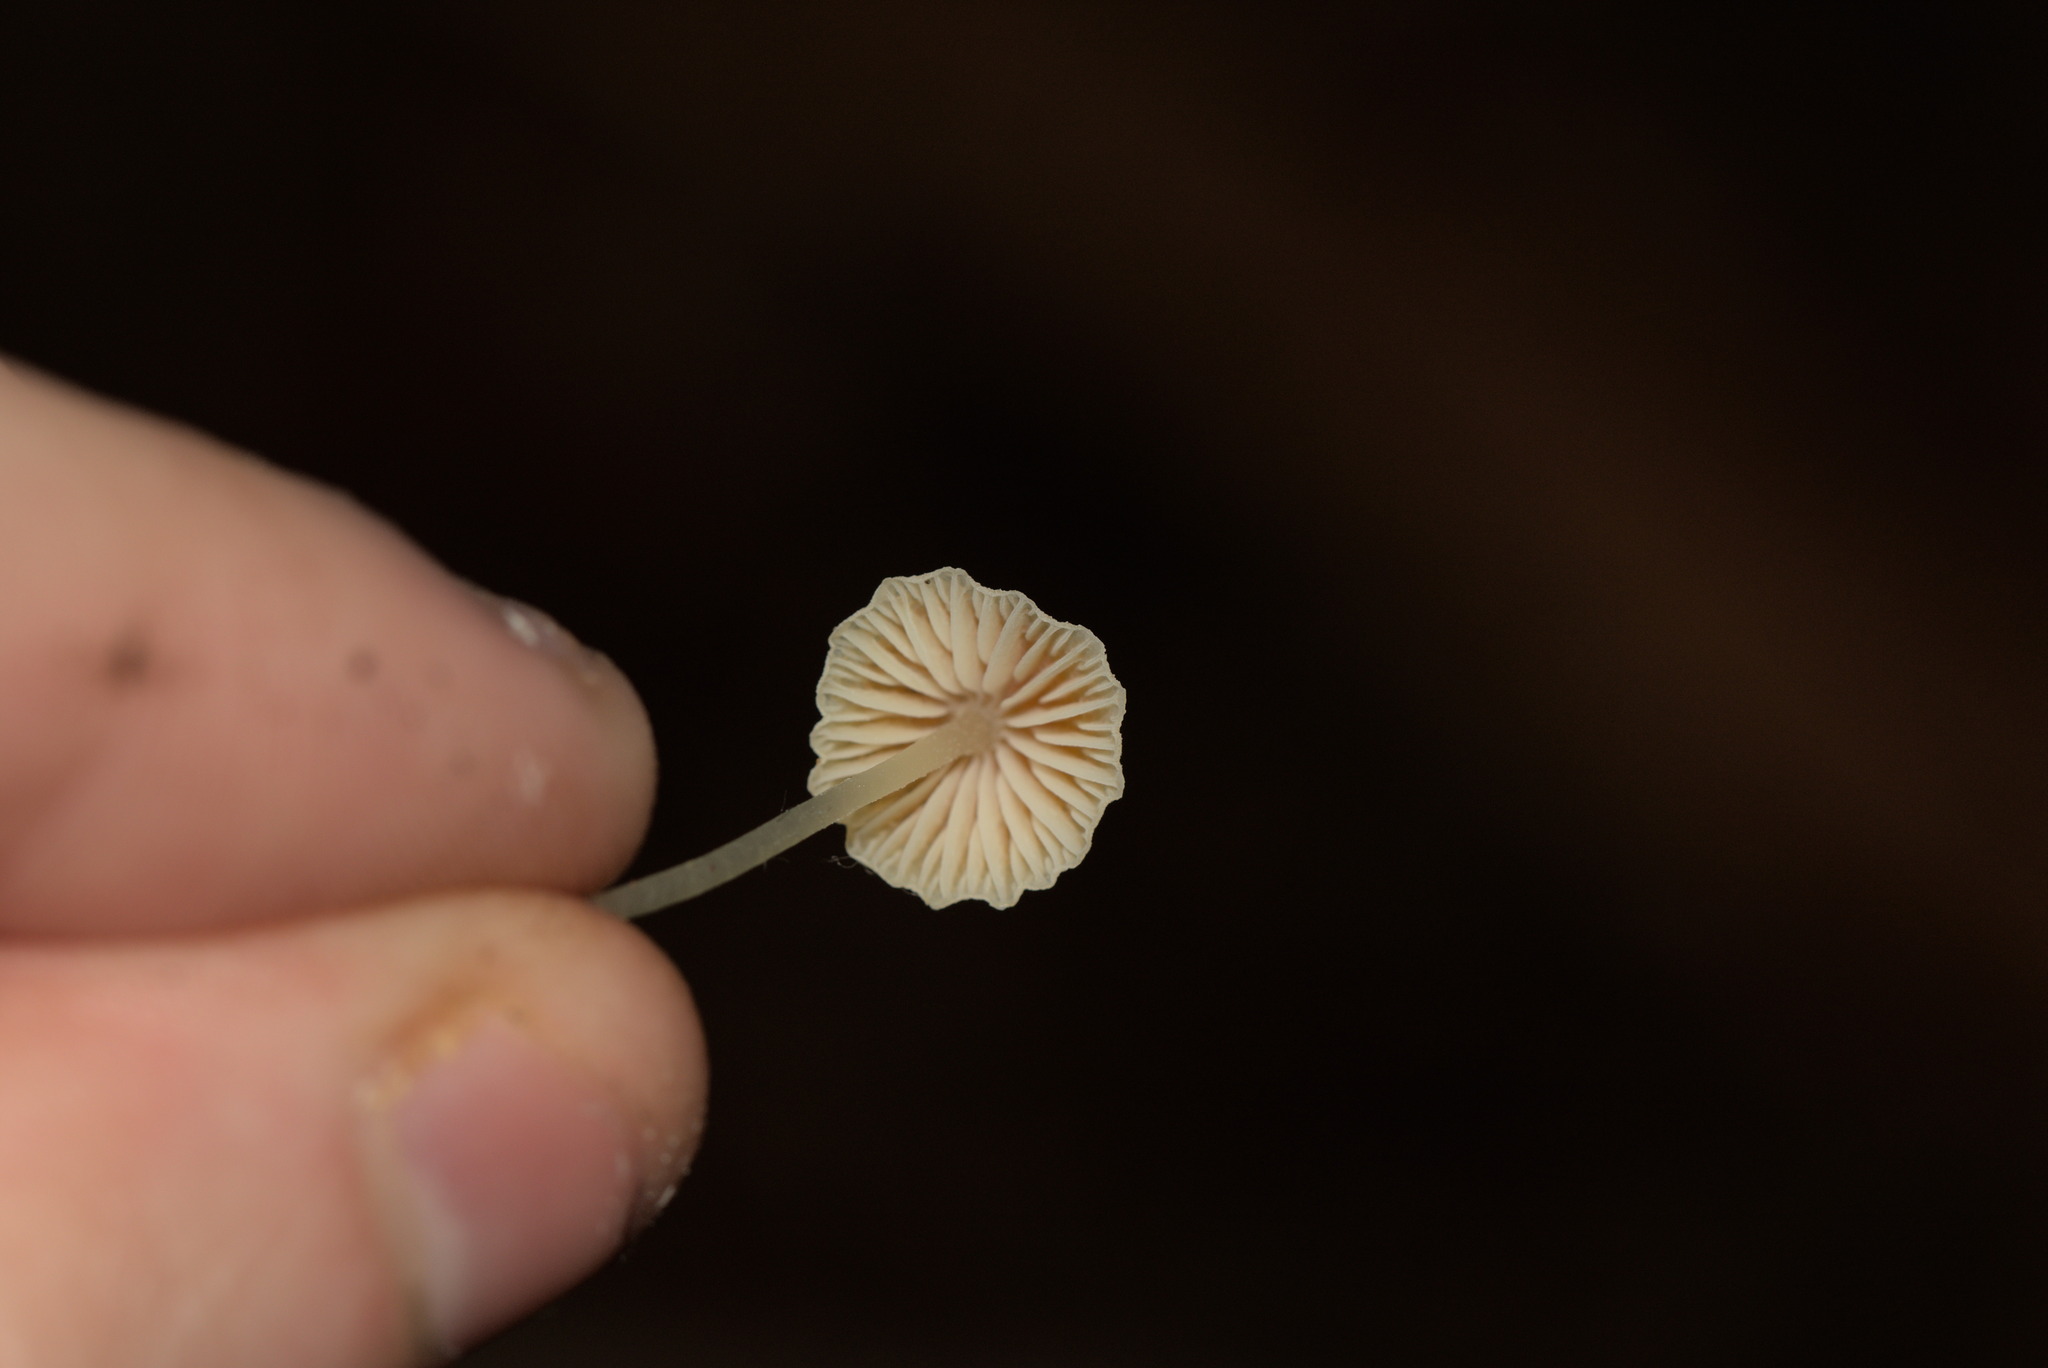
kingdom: Fungi
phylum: Basidiomycota
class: Agaricomycetes
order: Agaricales
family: Mycenaceae
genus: Atheniella
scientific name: Atheniella aurantiidisca
